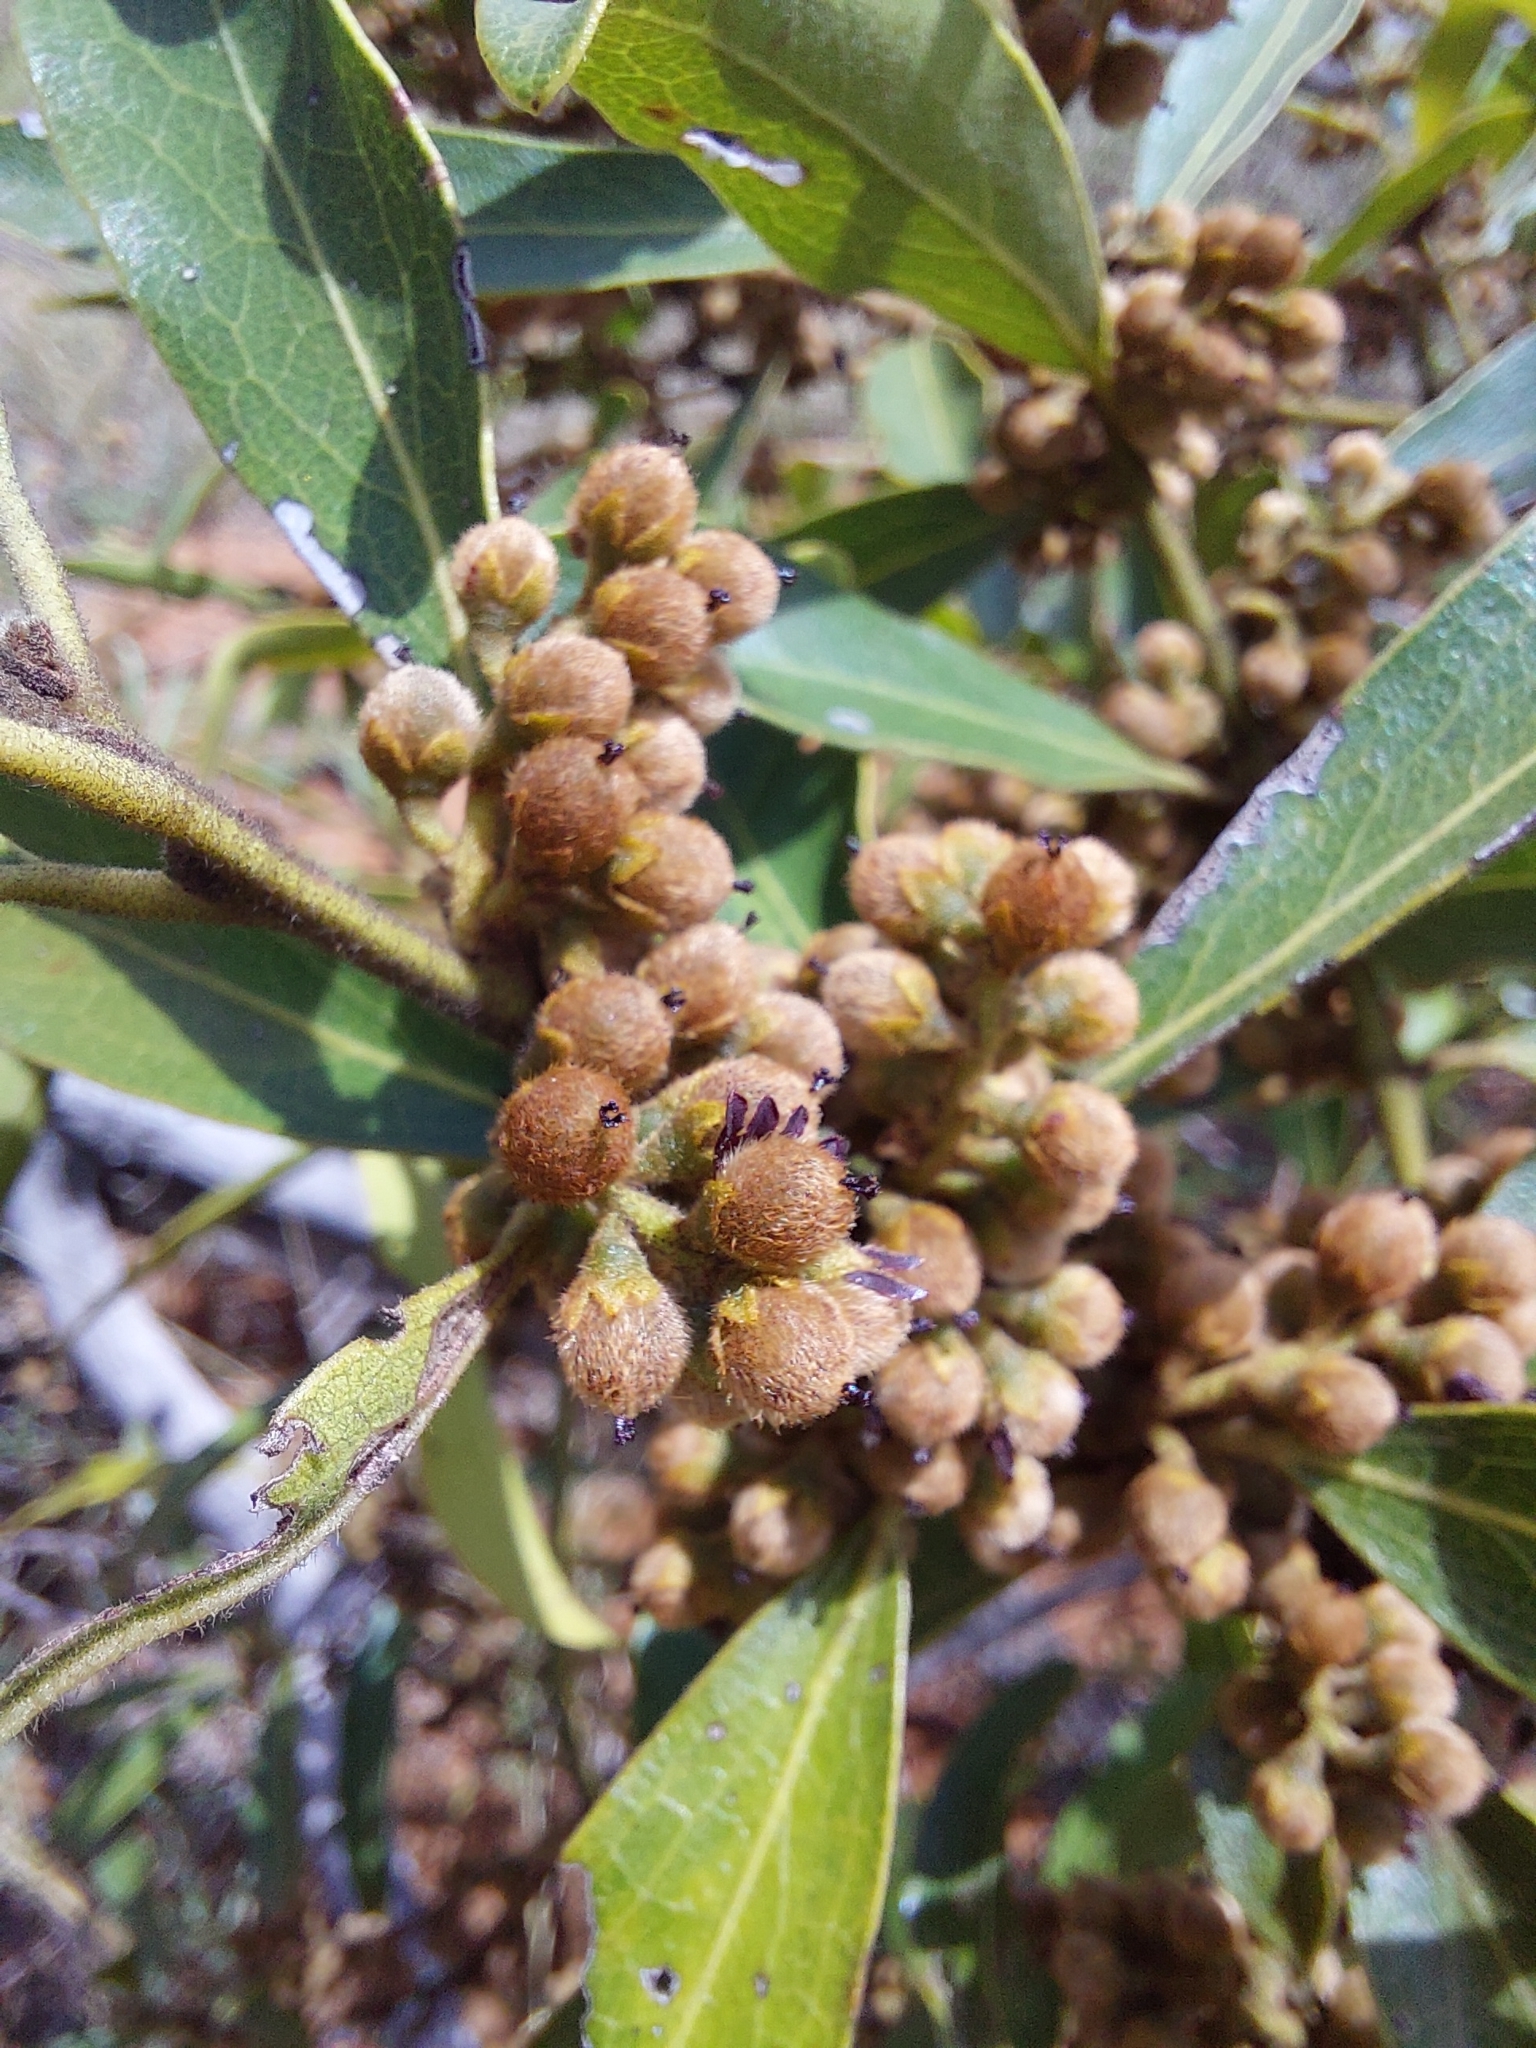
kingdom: Plantae
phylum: Tracheophyta
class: Magnoliopsida
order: Ericales
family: Ebenaceae
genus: Euclea
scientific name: Euclea natalensis
